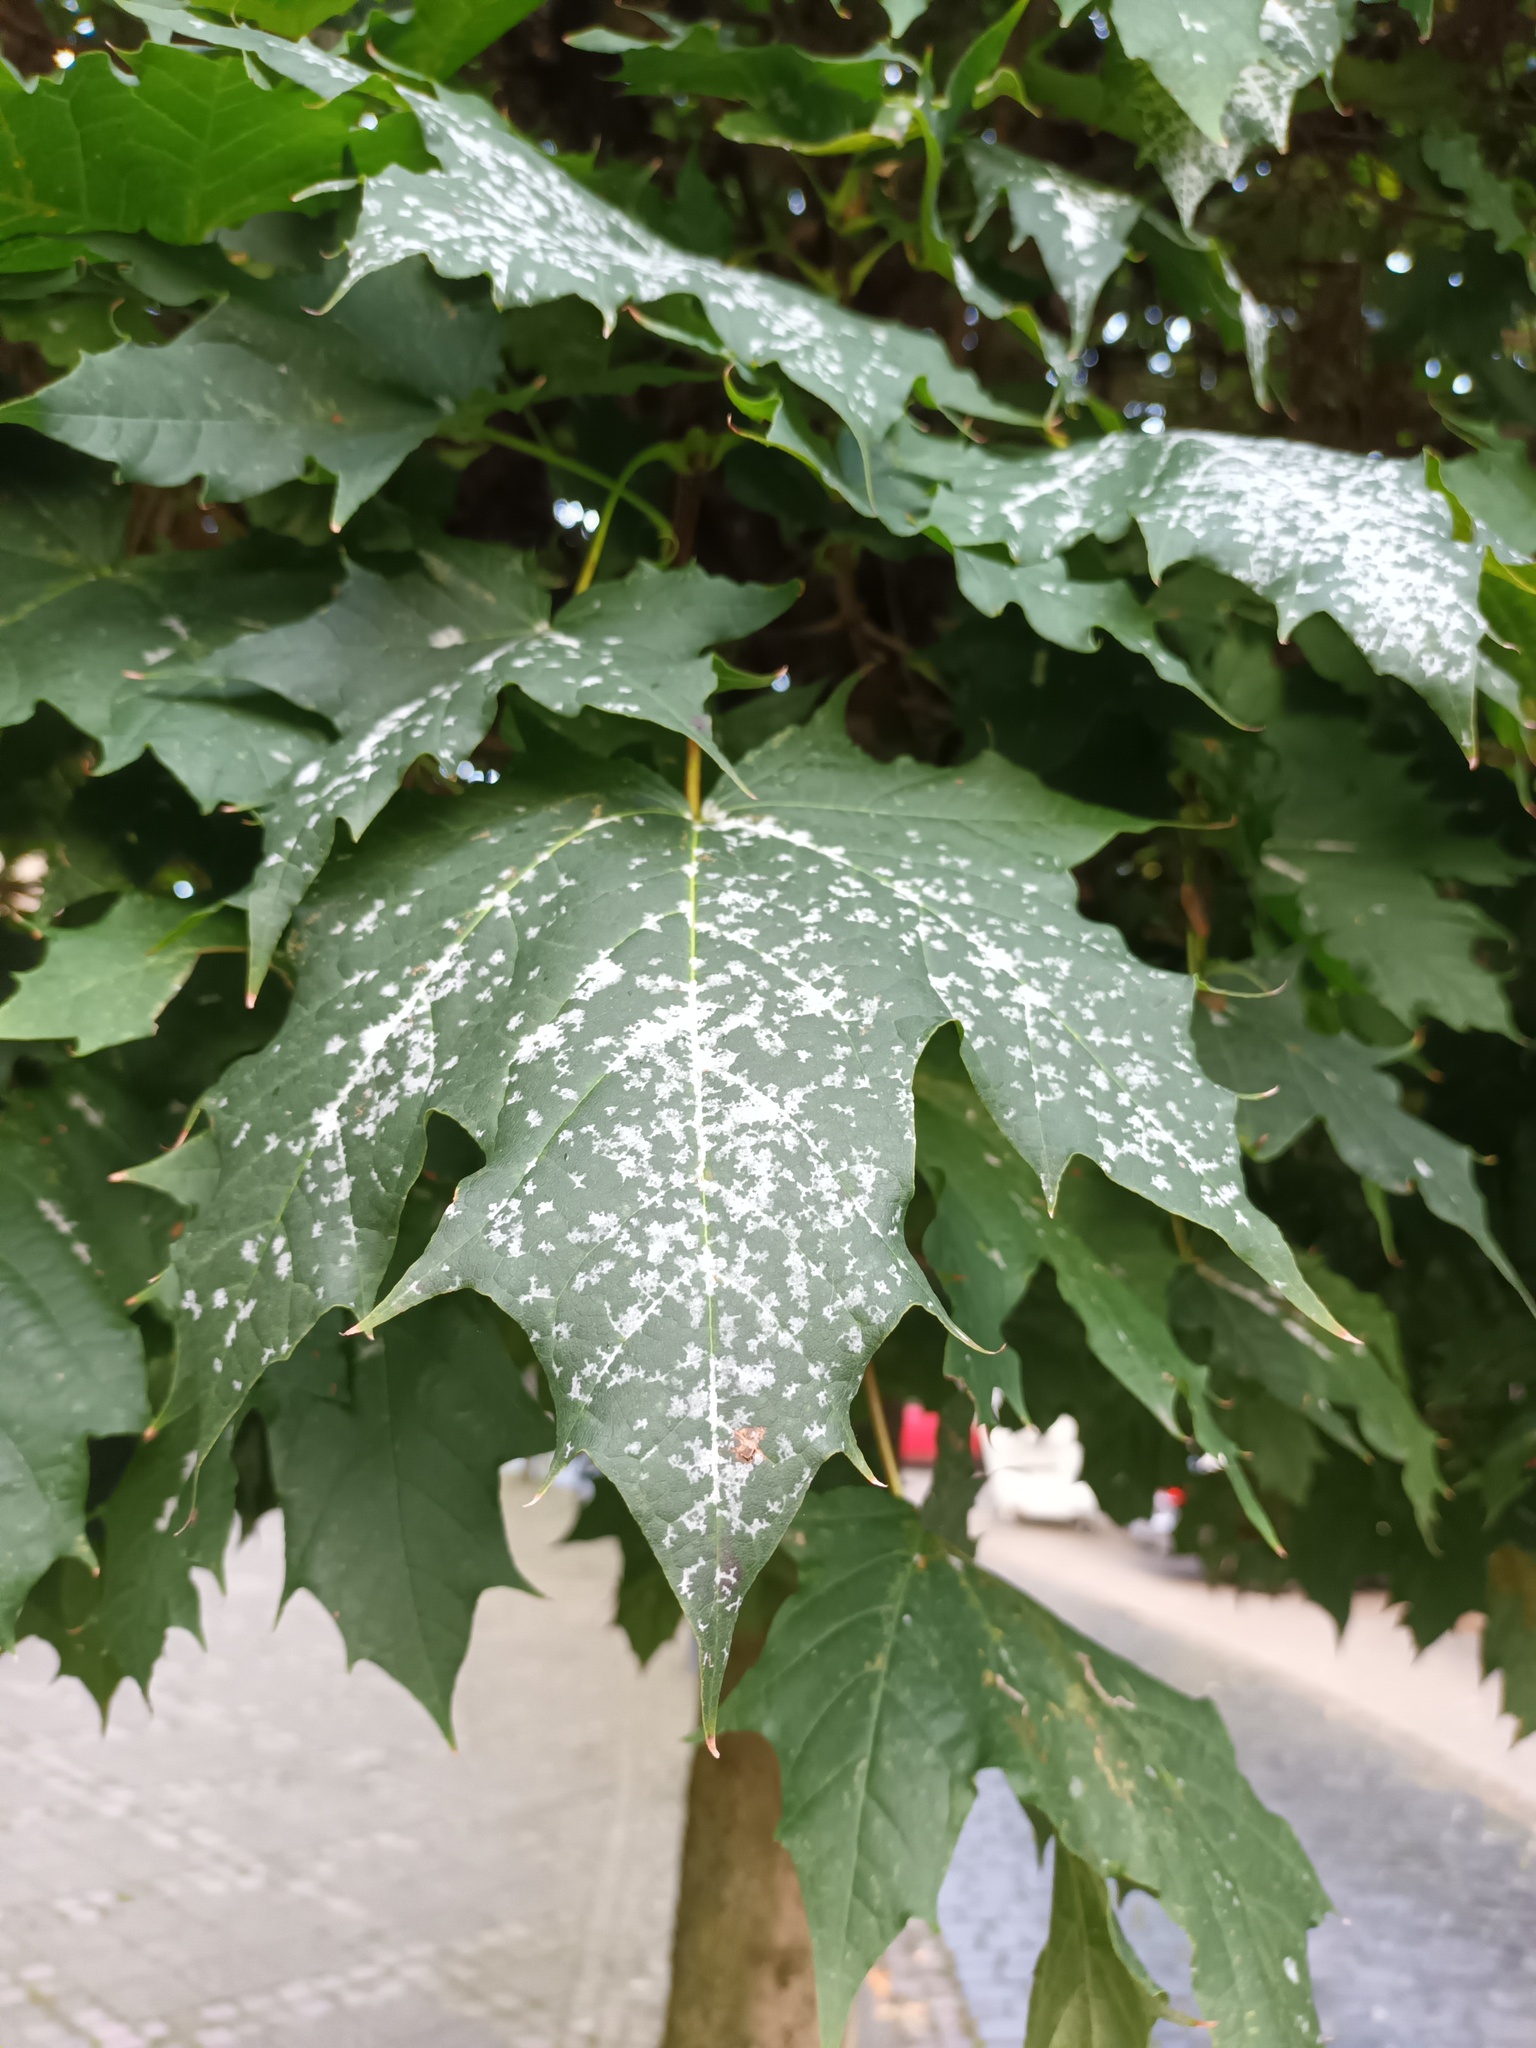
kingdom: Fungi
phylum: Ascomycota
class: Leotiomycetes
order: Helotiales
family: Erysiphaceae
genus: Sawadaea
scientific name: Sawadaea tulasnei
